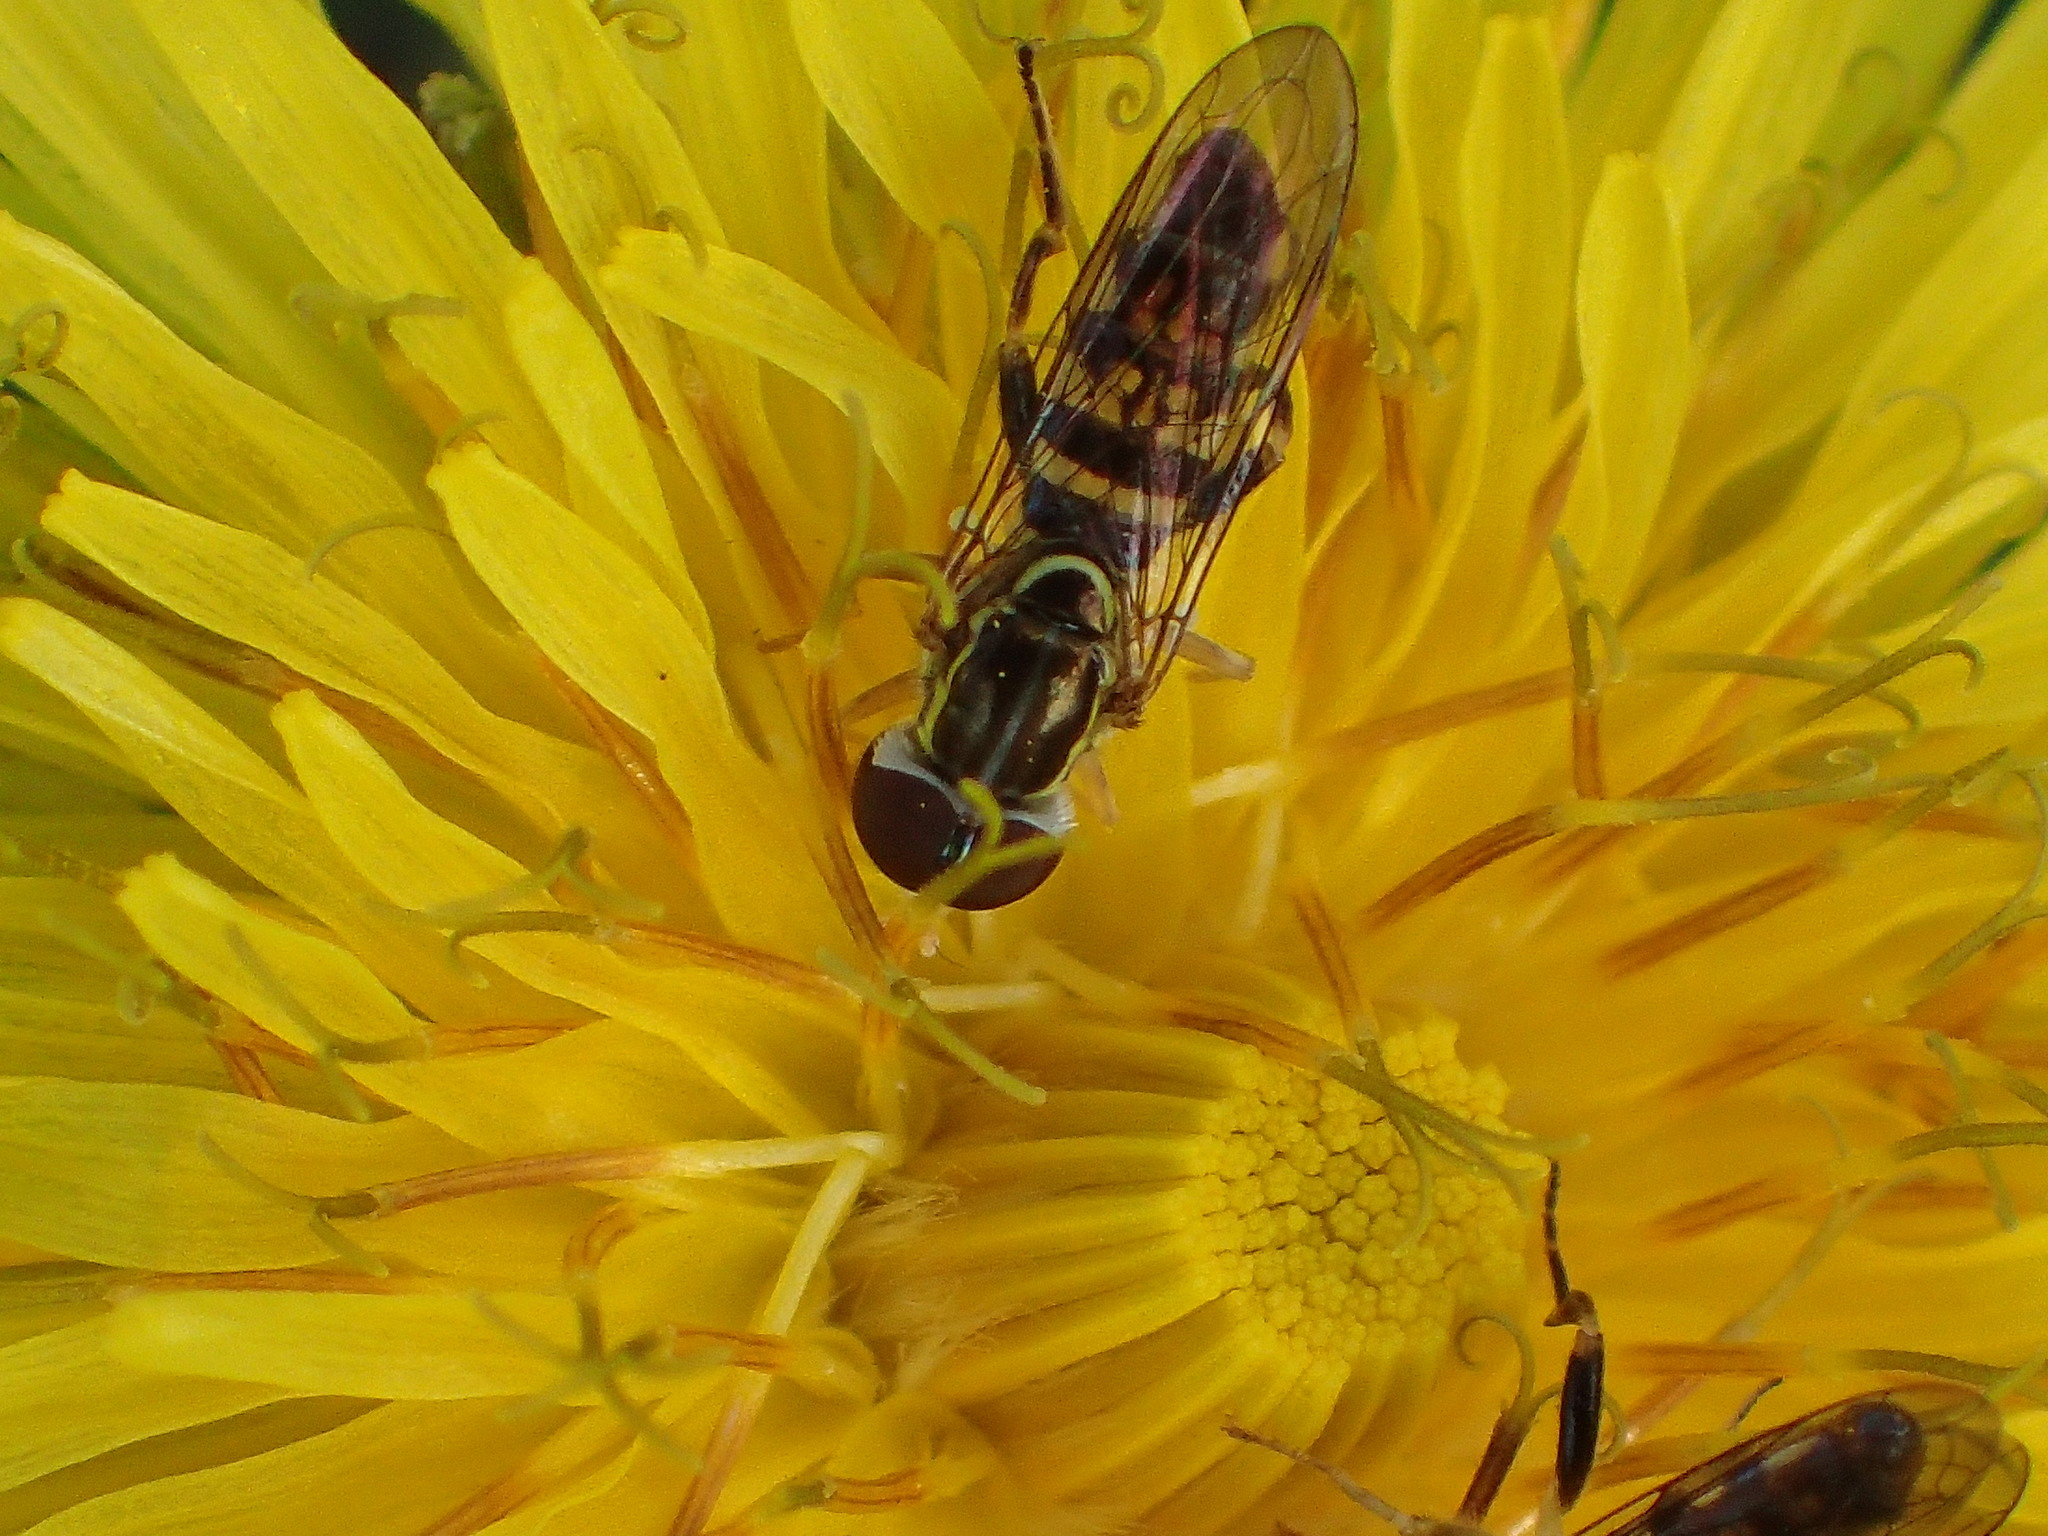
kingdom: Animalia
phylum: Arthropoda
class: Insecta
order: Diptera
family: Syrphidae
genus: Toxomerus
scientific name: Toxomerus geminatus
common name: Eastern calligrapher
